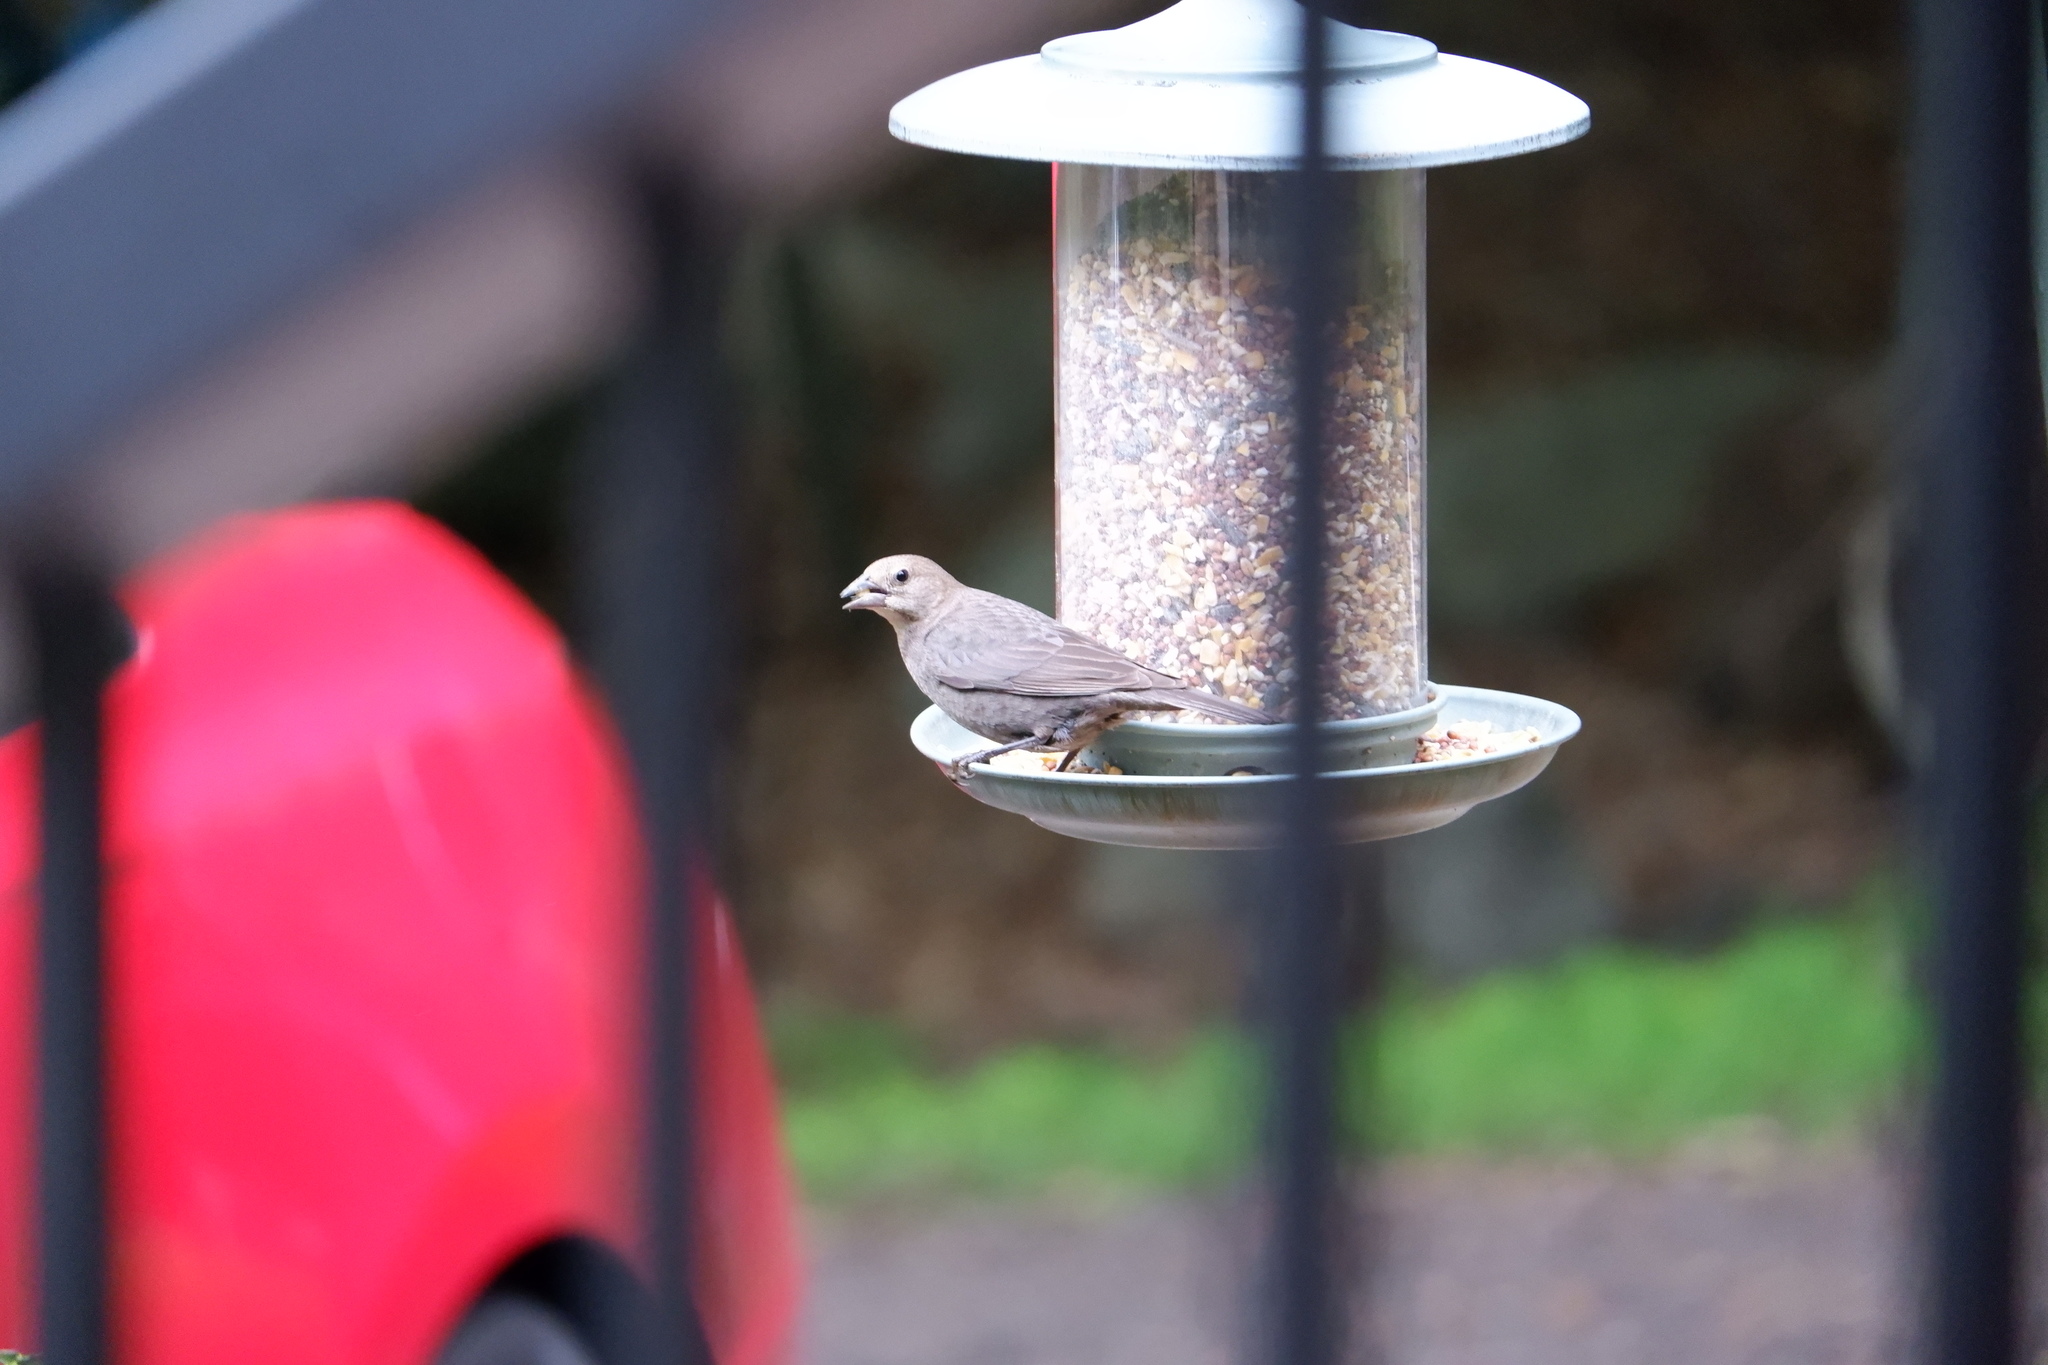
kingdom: Animalia
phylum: Chordata
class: Aves
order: Passeriformes
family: Icteridae
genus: Molothrus
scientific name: Molothrus ater
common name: Brown-headed cowbird
